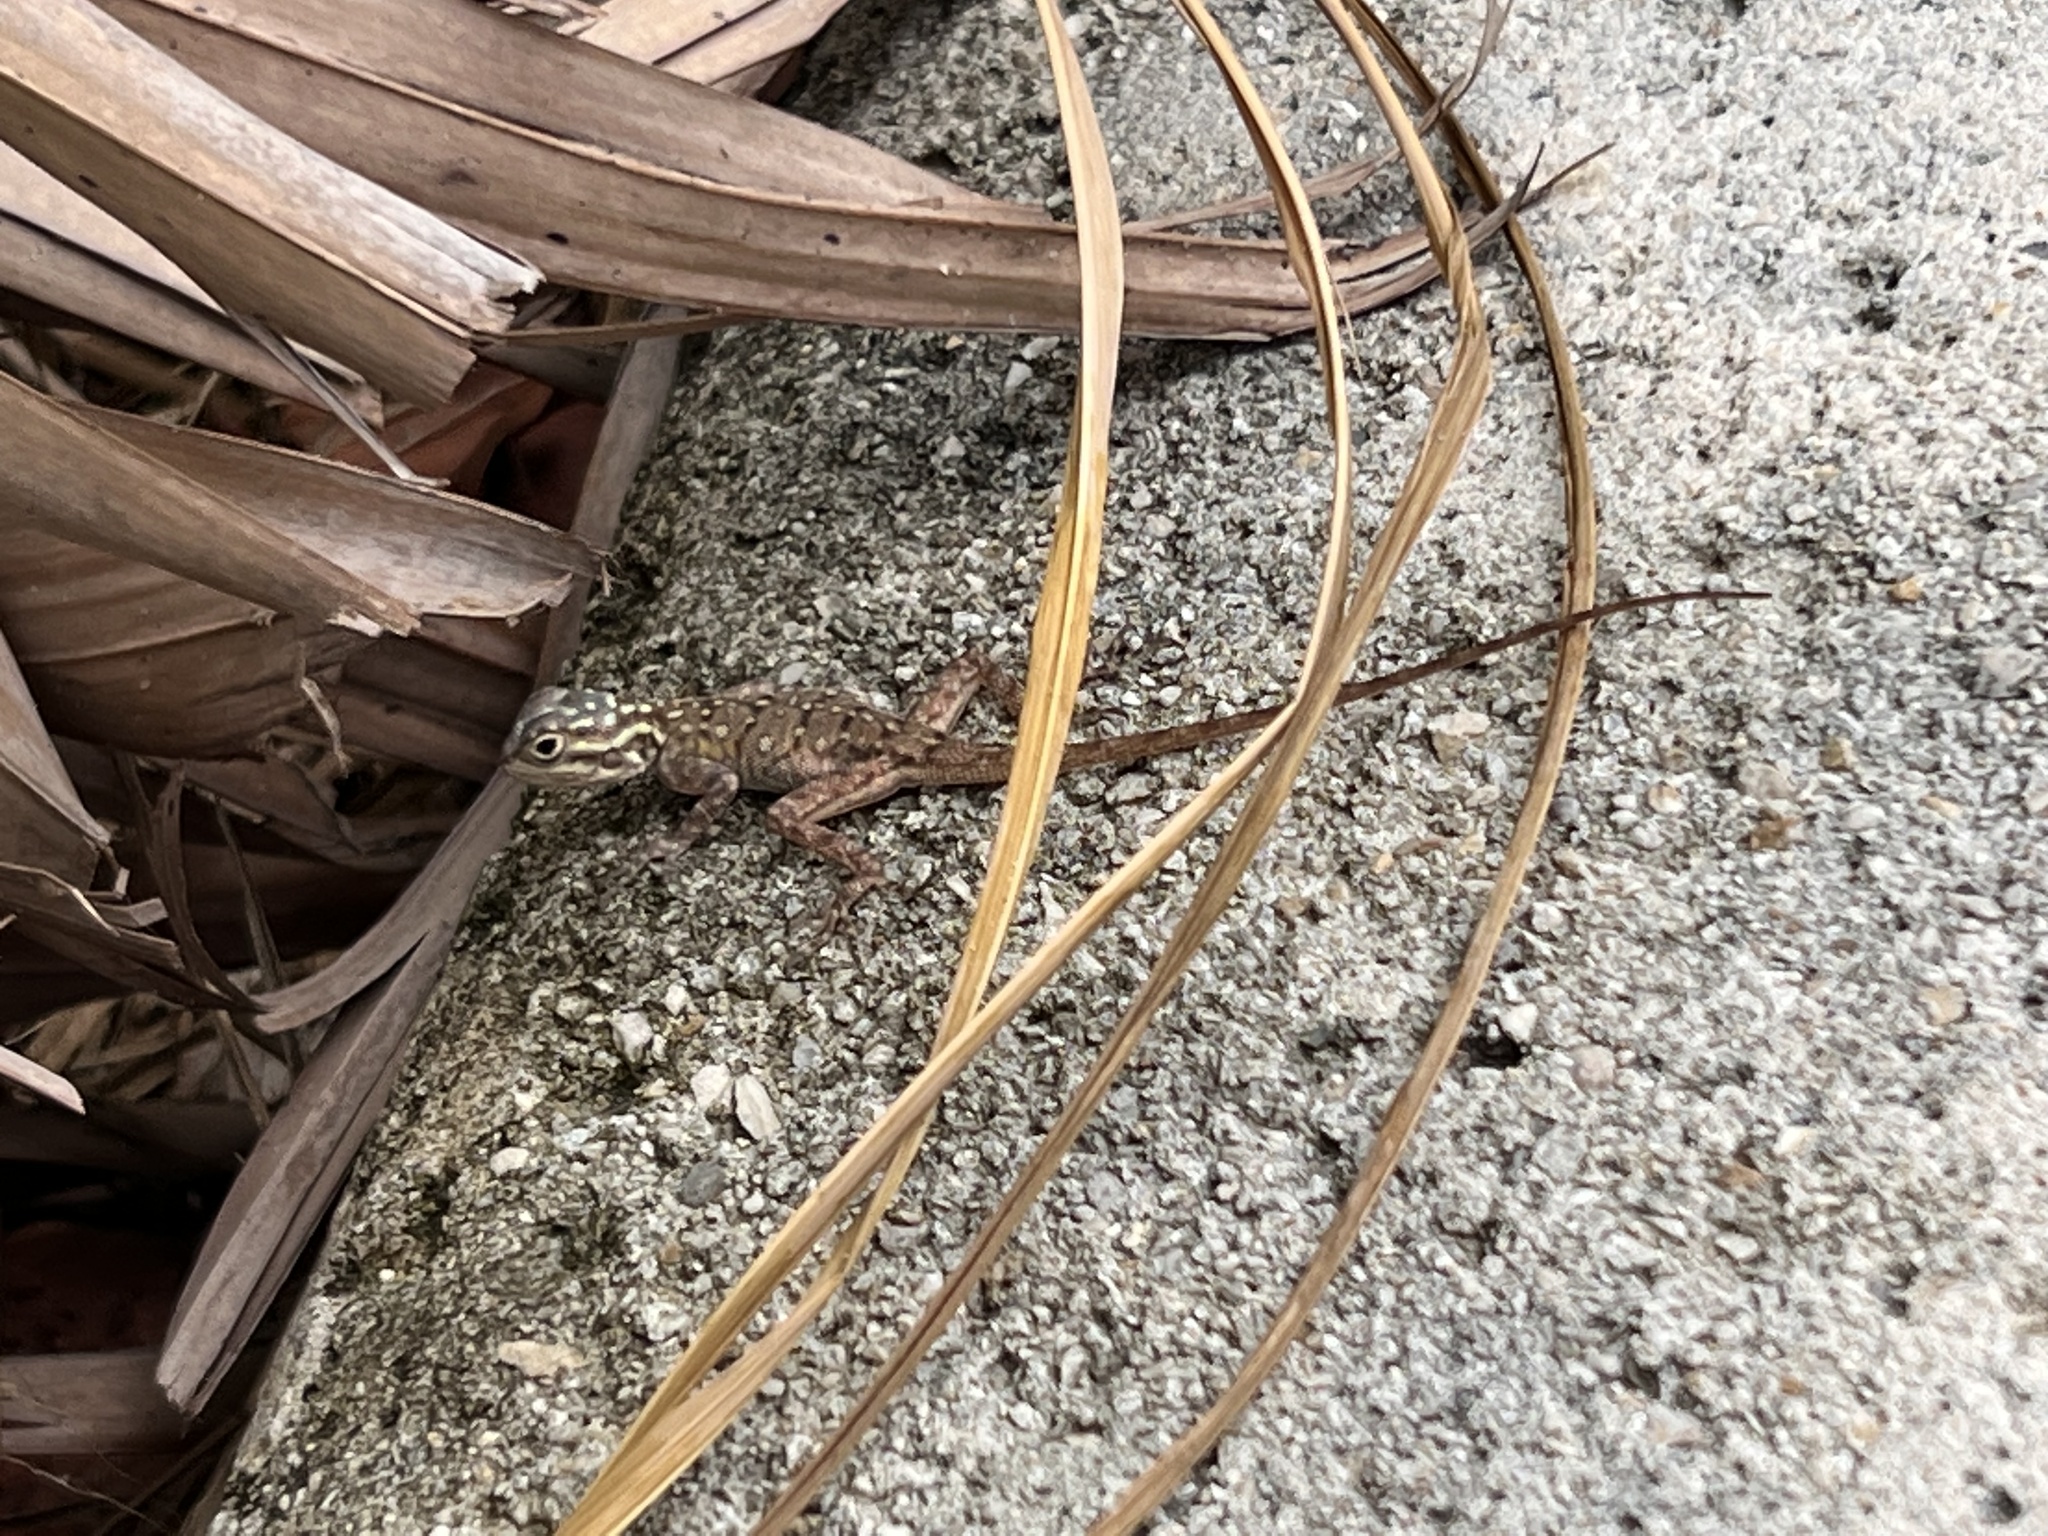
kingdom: Animalia
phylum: Chordata
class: Squamata
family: Agamidae
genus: Agama
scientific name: Agama picticauda
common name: Red-headed agama
